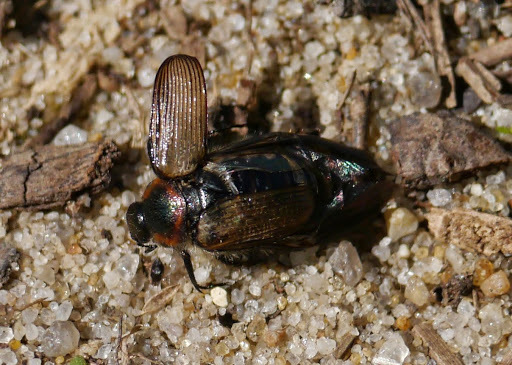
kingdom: Animalia
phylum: Arthropoda
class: Insecta
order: Coleoptera
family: Scarabaeidae
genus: Strigoderma
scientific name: Strigoderma arbicola
